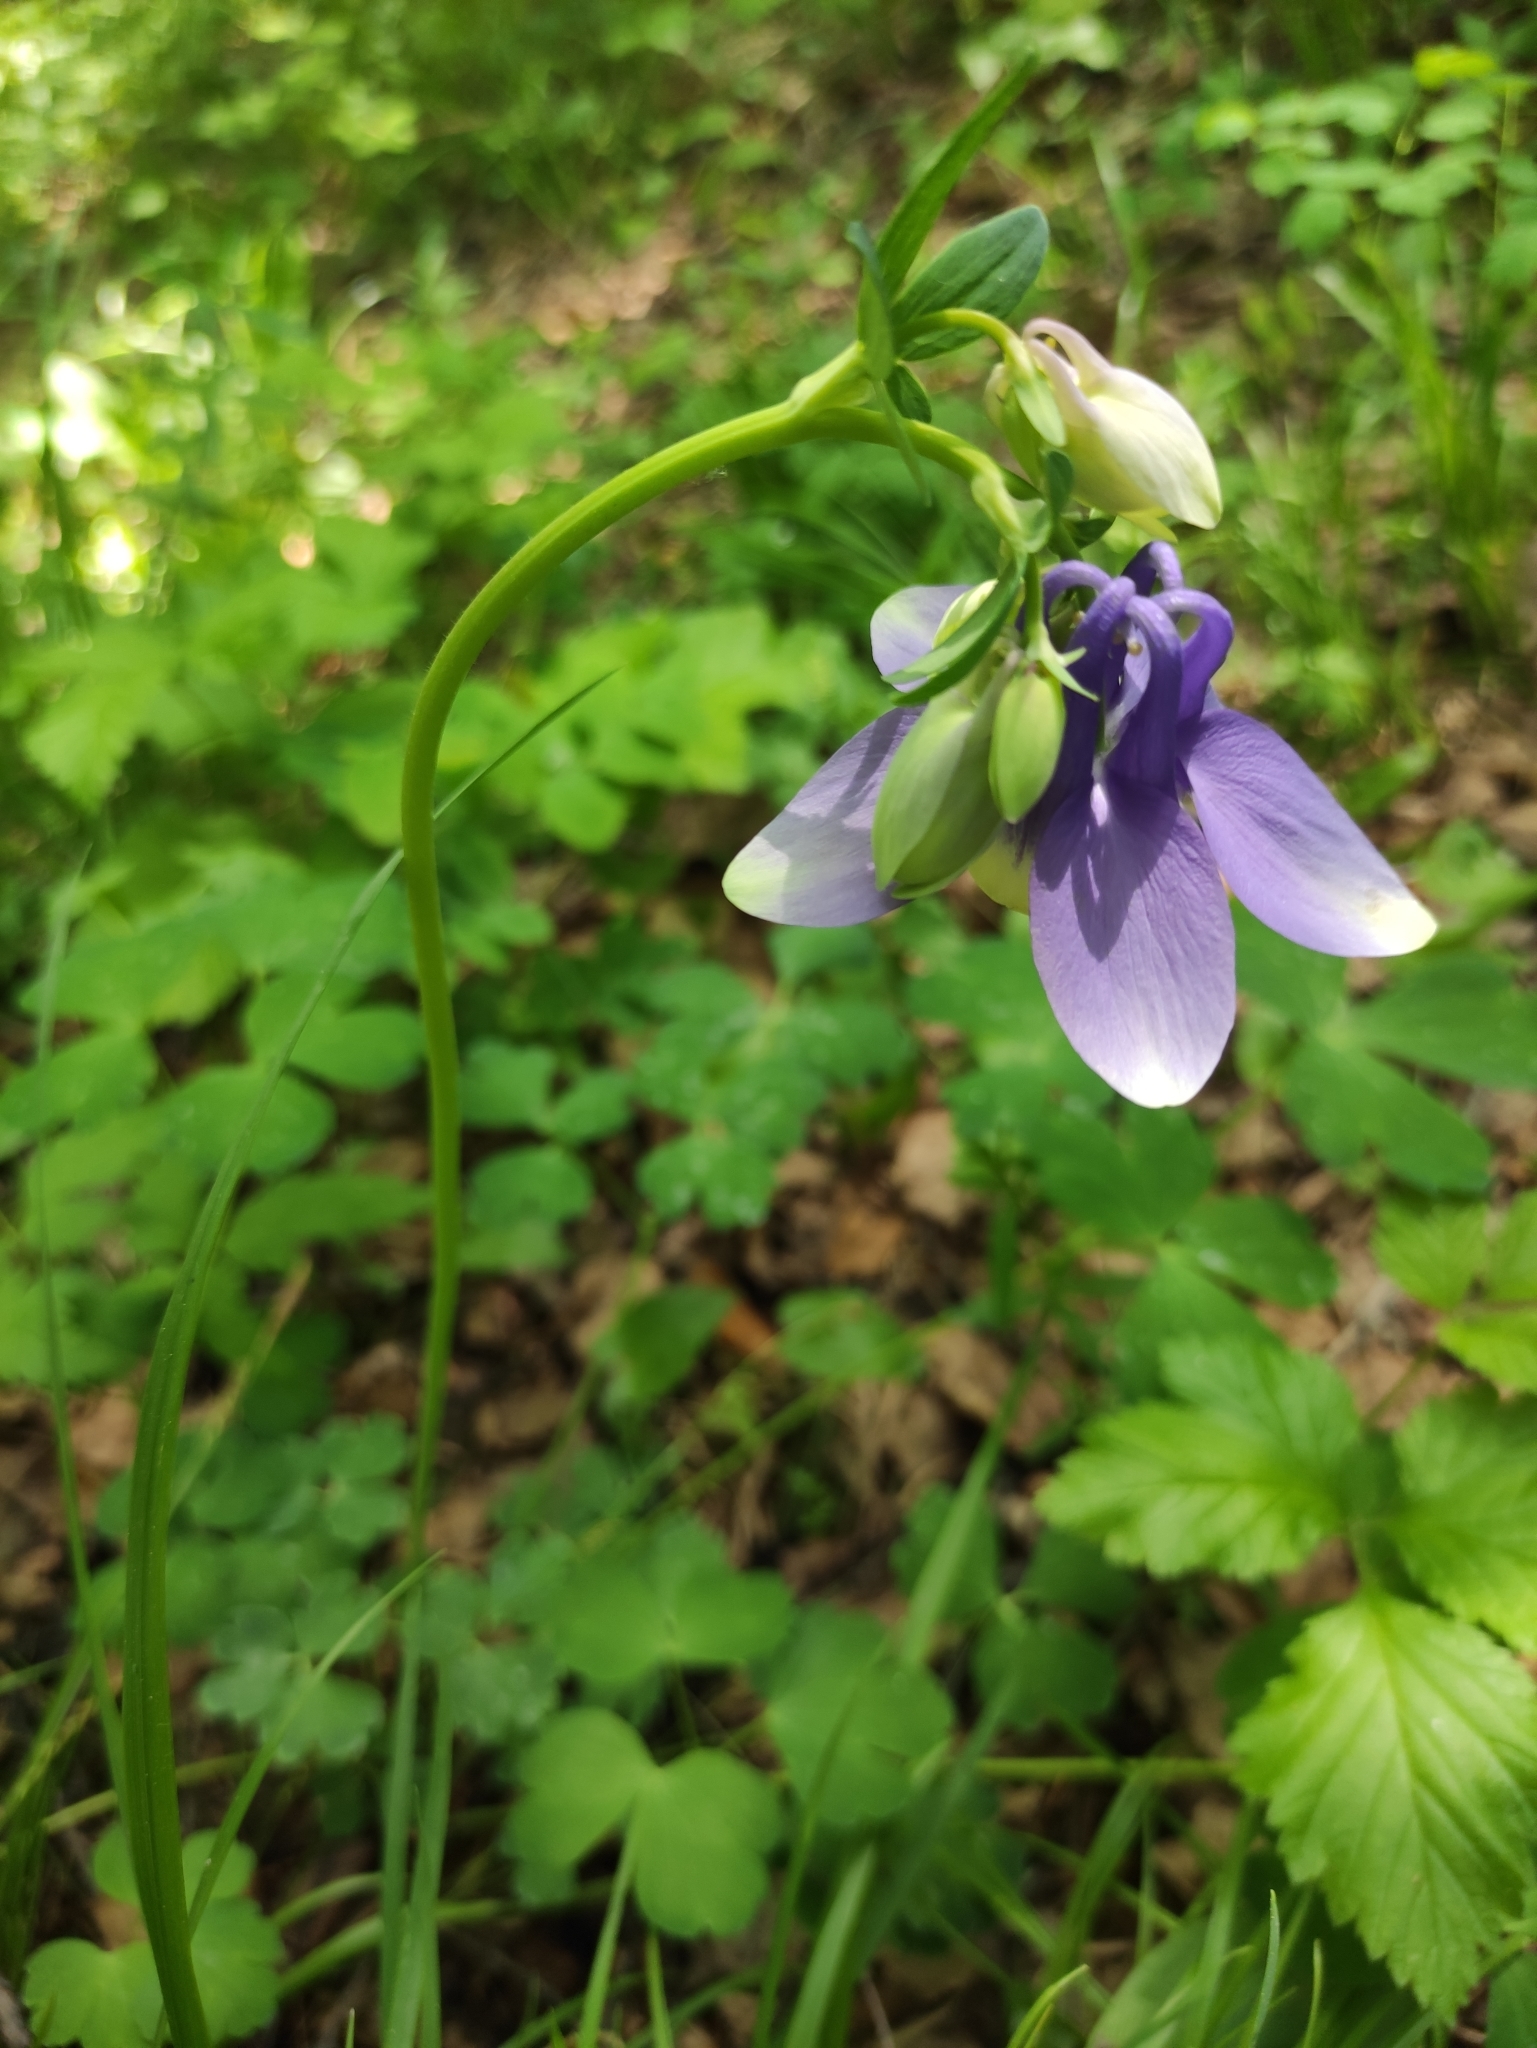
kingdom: Plantae
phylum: Tracheophyta
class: Magnoliopsida
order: Ranunculales
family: Ranunculaceae
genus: Aquilegia
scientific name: Aquilegia sibirica
